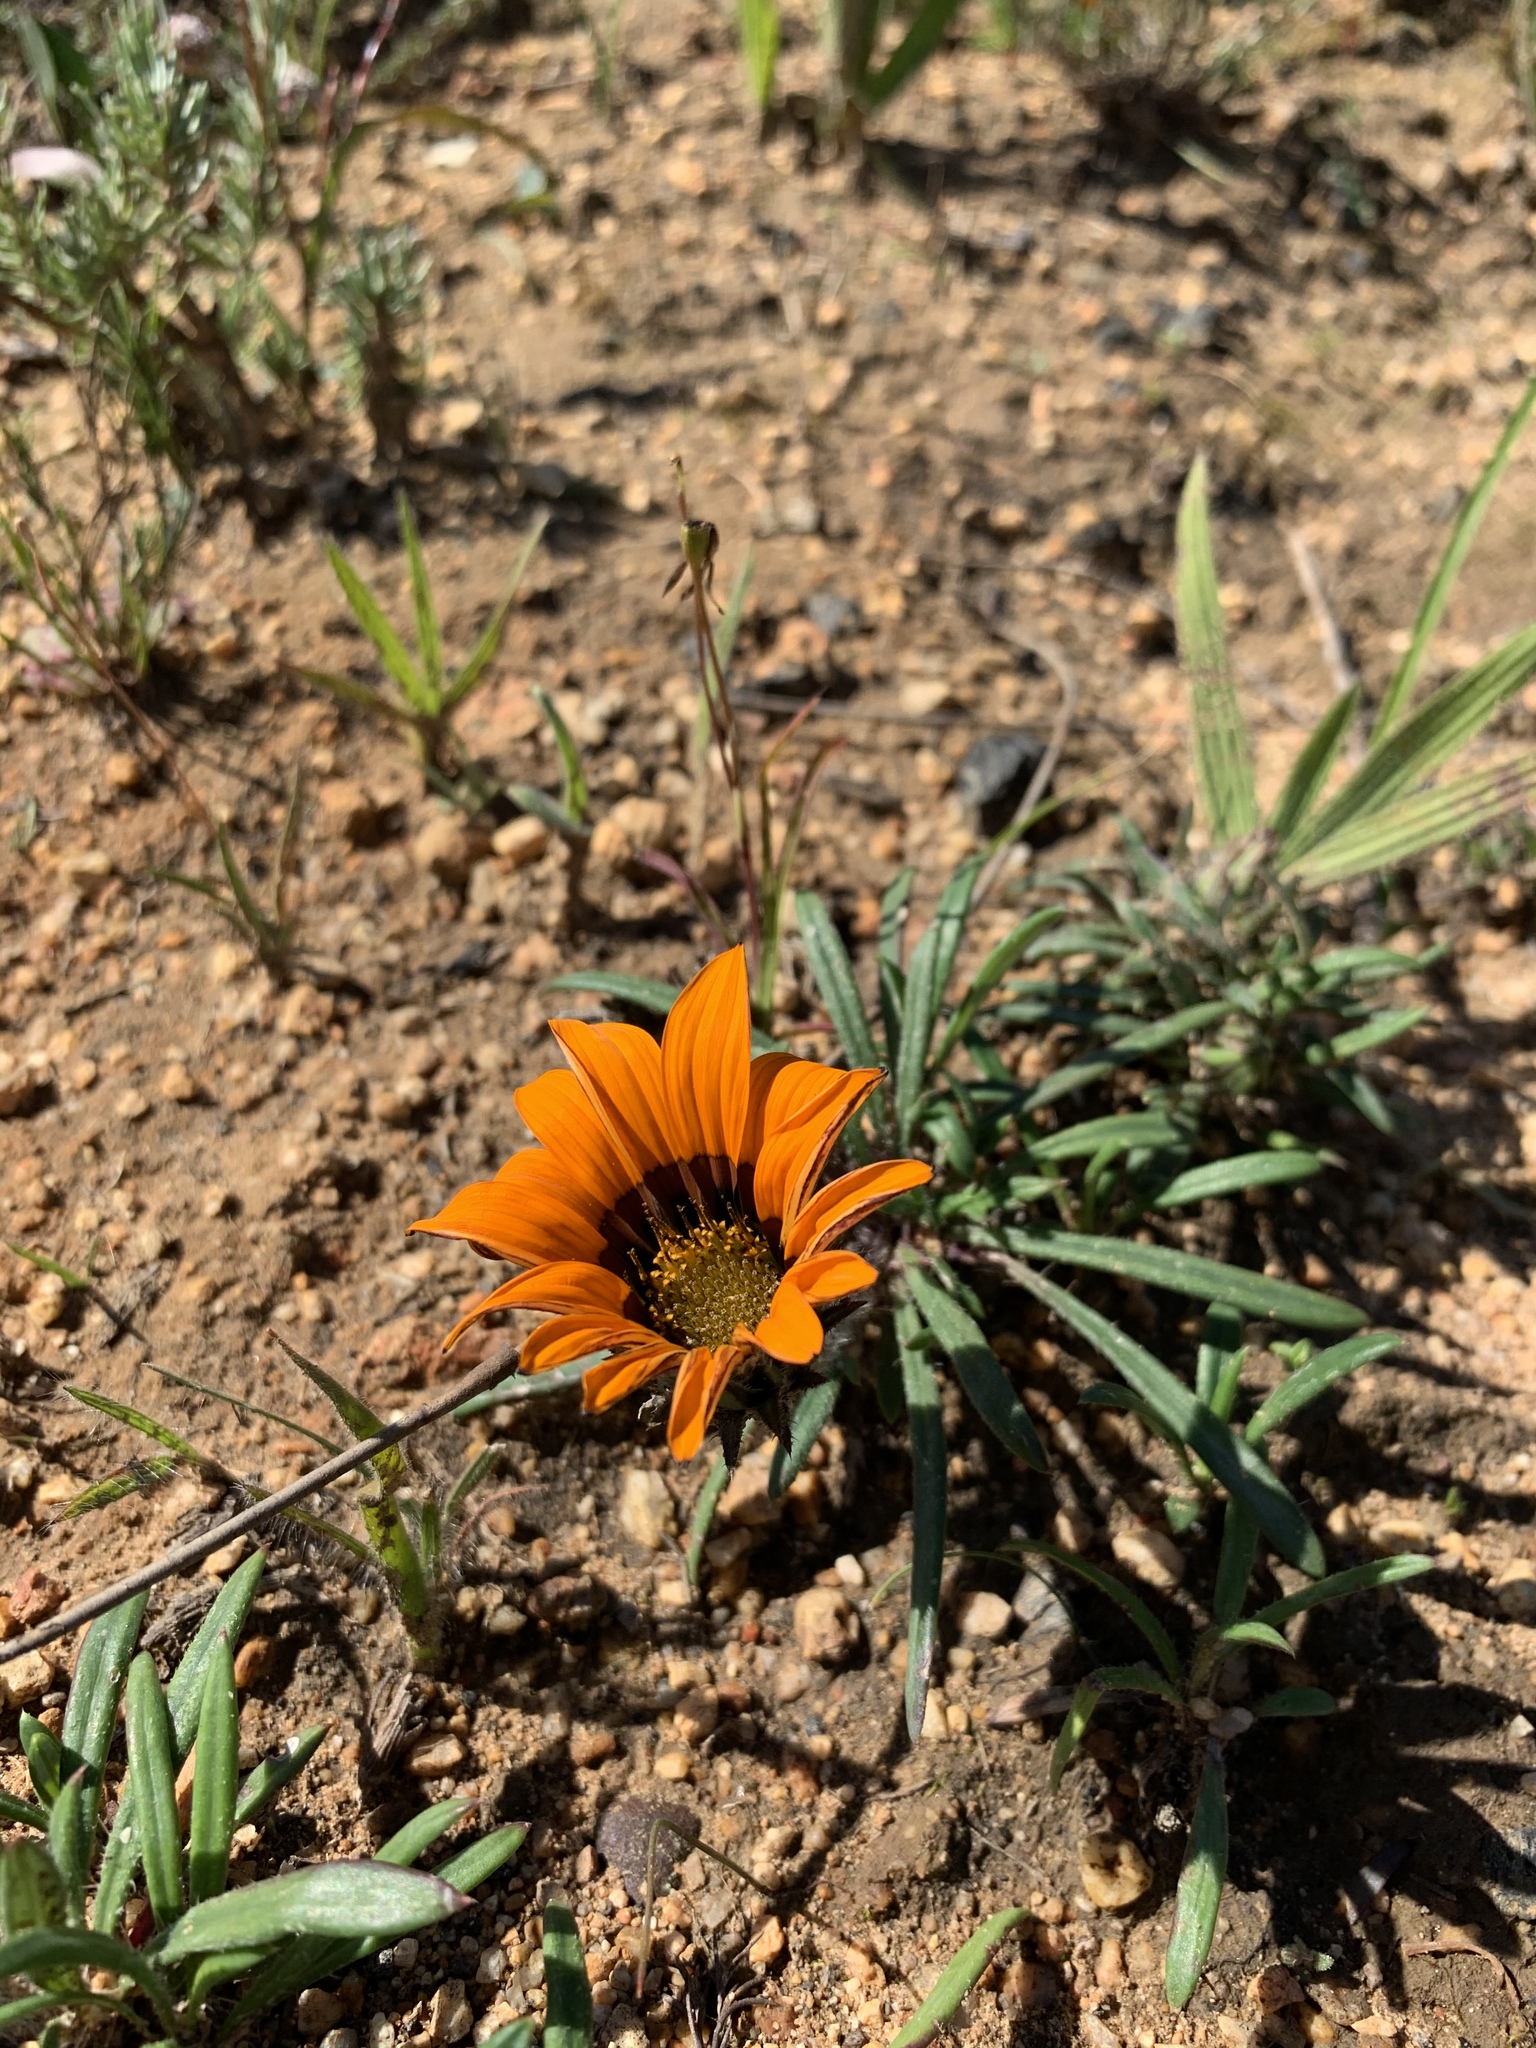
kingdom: Plantae
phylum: Tracheophyta
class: Magnoliopsida
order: Asterales
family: Asteraceae
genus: Gazania
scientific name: Gazania ciliaris
